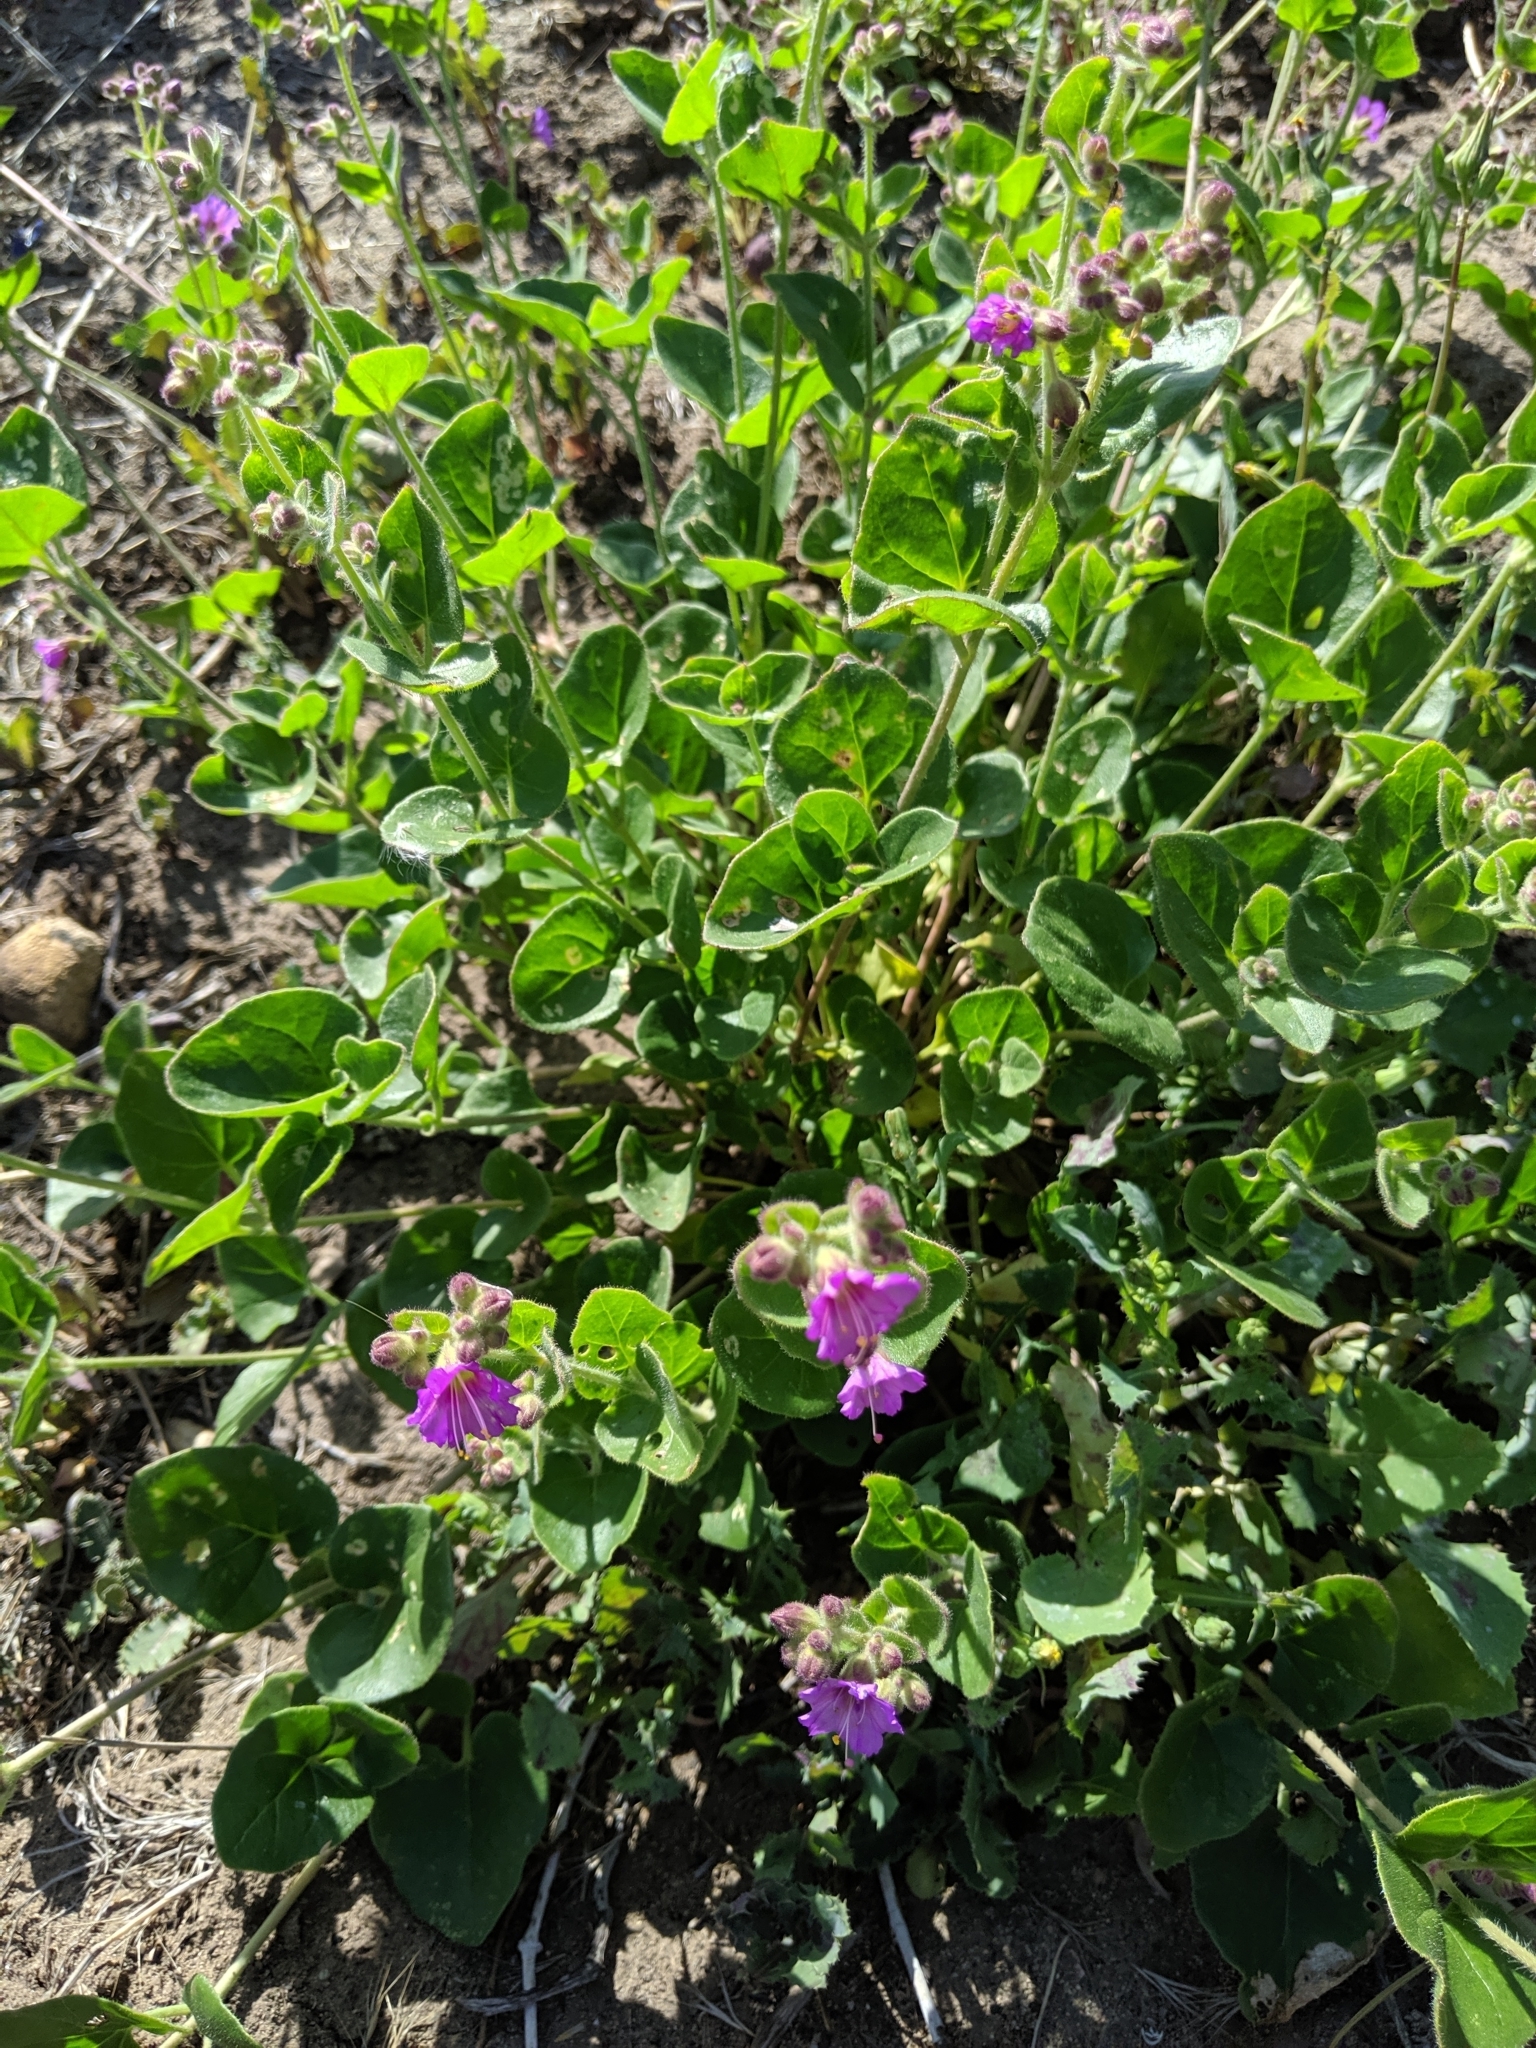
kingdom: Plantae
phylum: Tracheophyta
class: Magnoliopsida
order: Caryophyllales
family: Nyctaginaceae
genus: Mirabilis
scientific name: Mirabilis laevis
